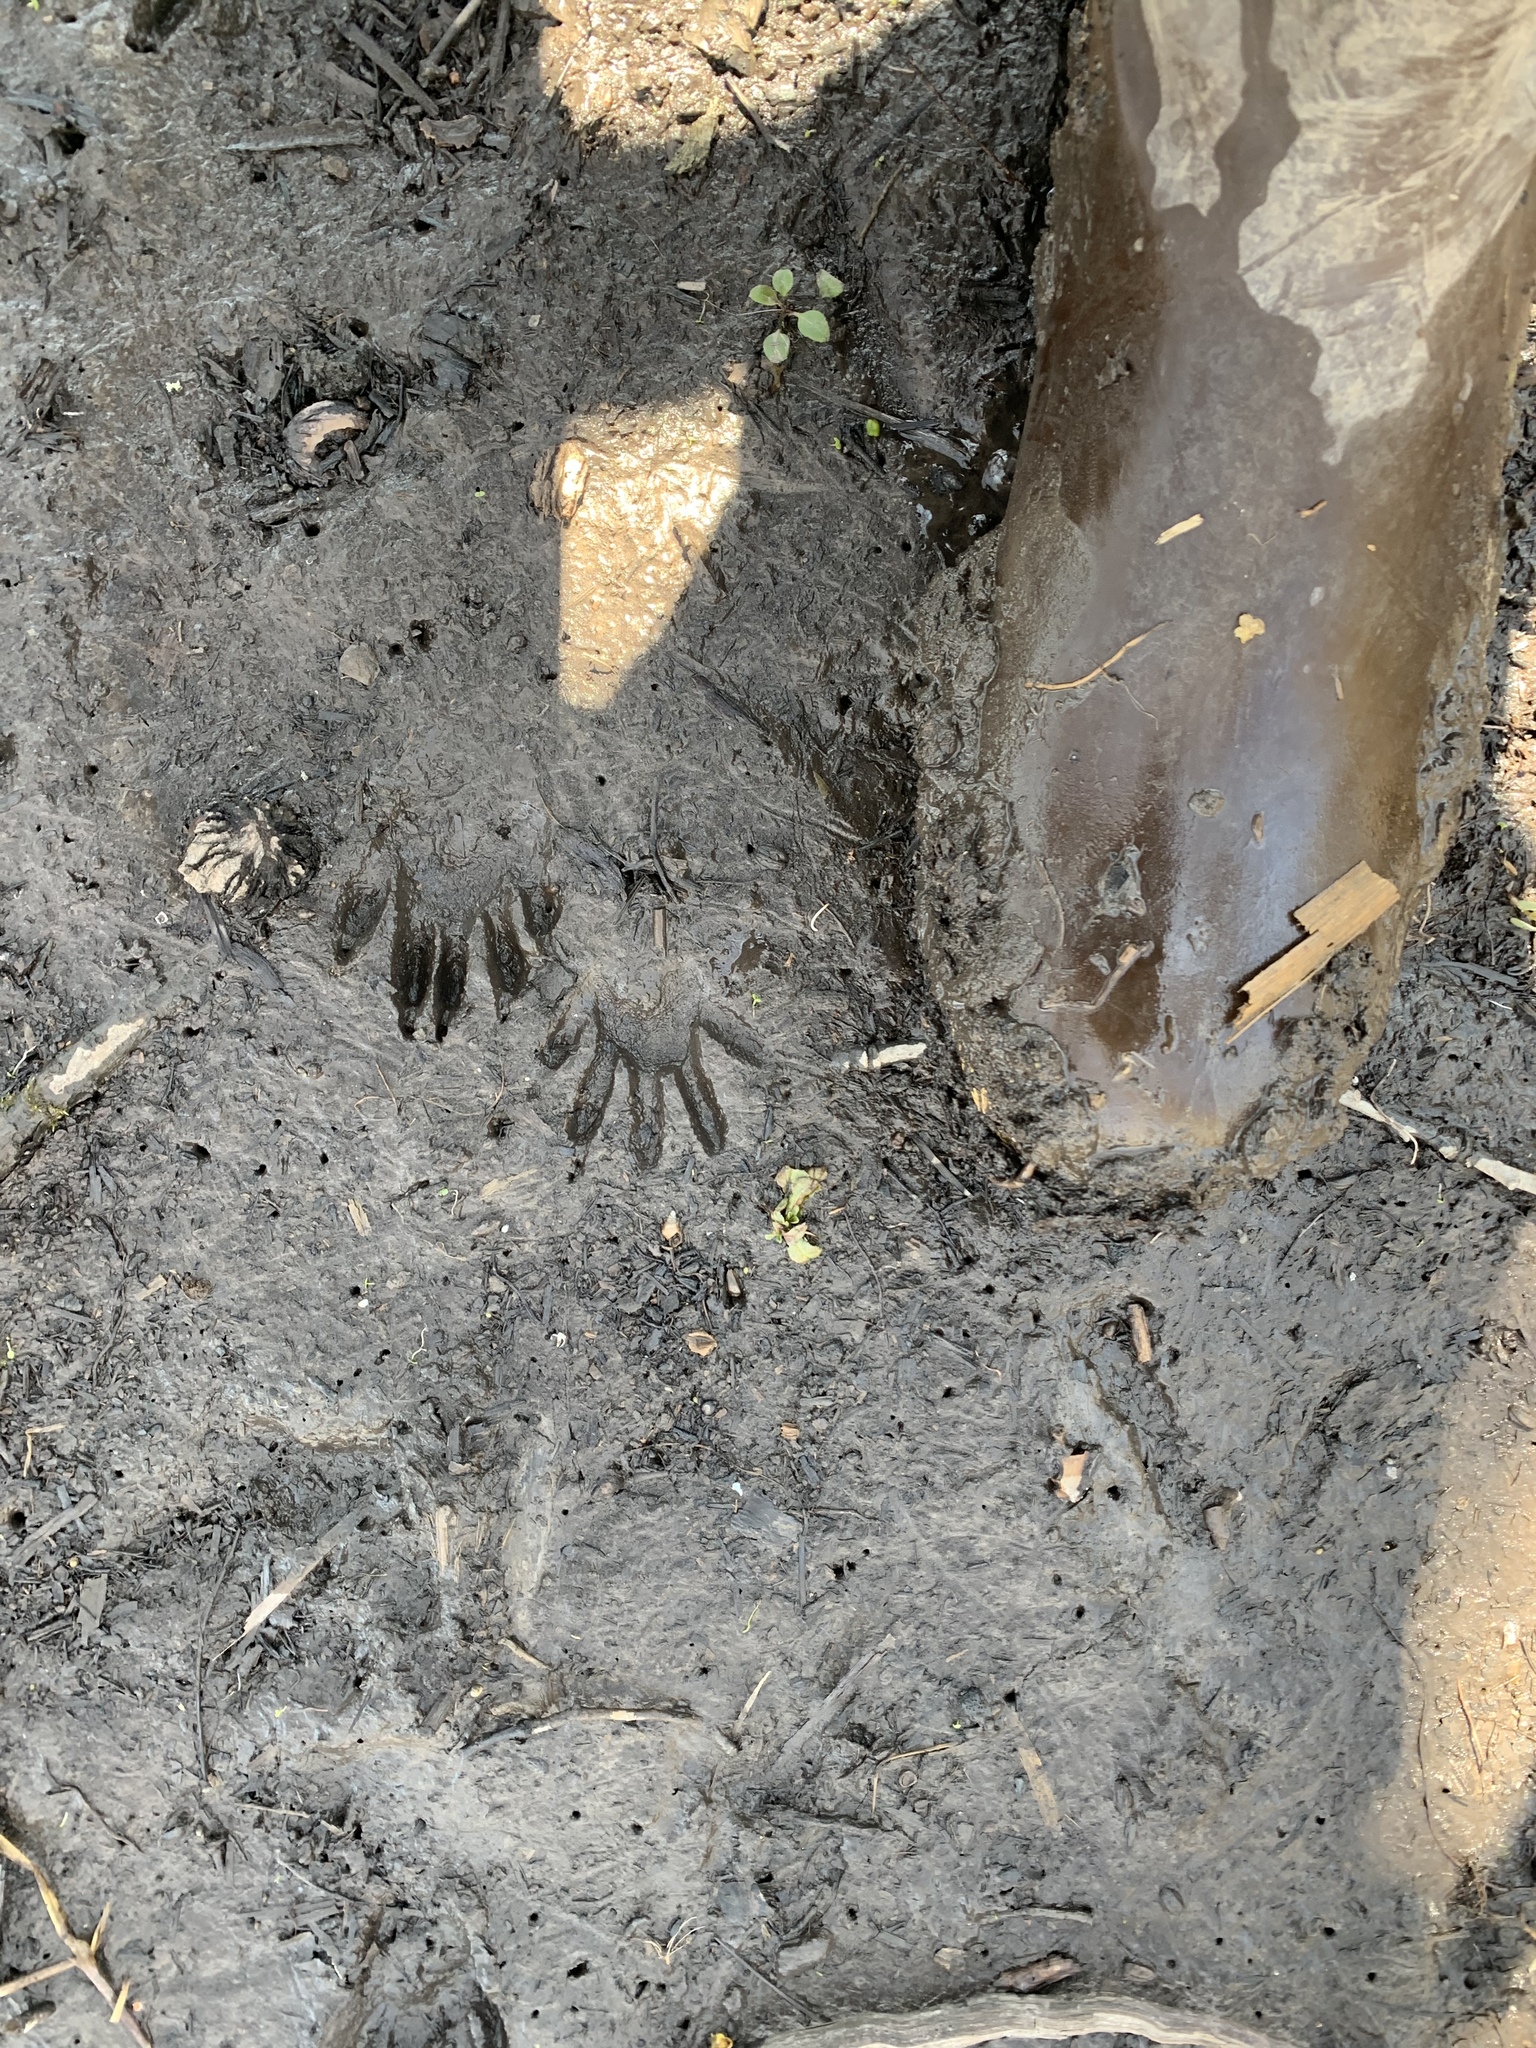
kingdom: Animalia
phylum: Chordata
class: Mammalia
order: Carnivora
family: Procyonidae
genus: Procyon
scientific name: Procyon lotor
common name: Raccoon
